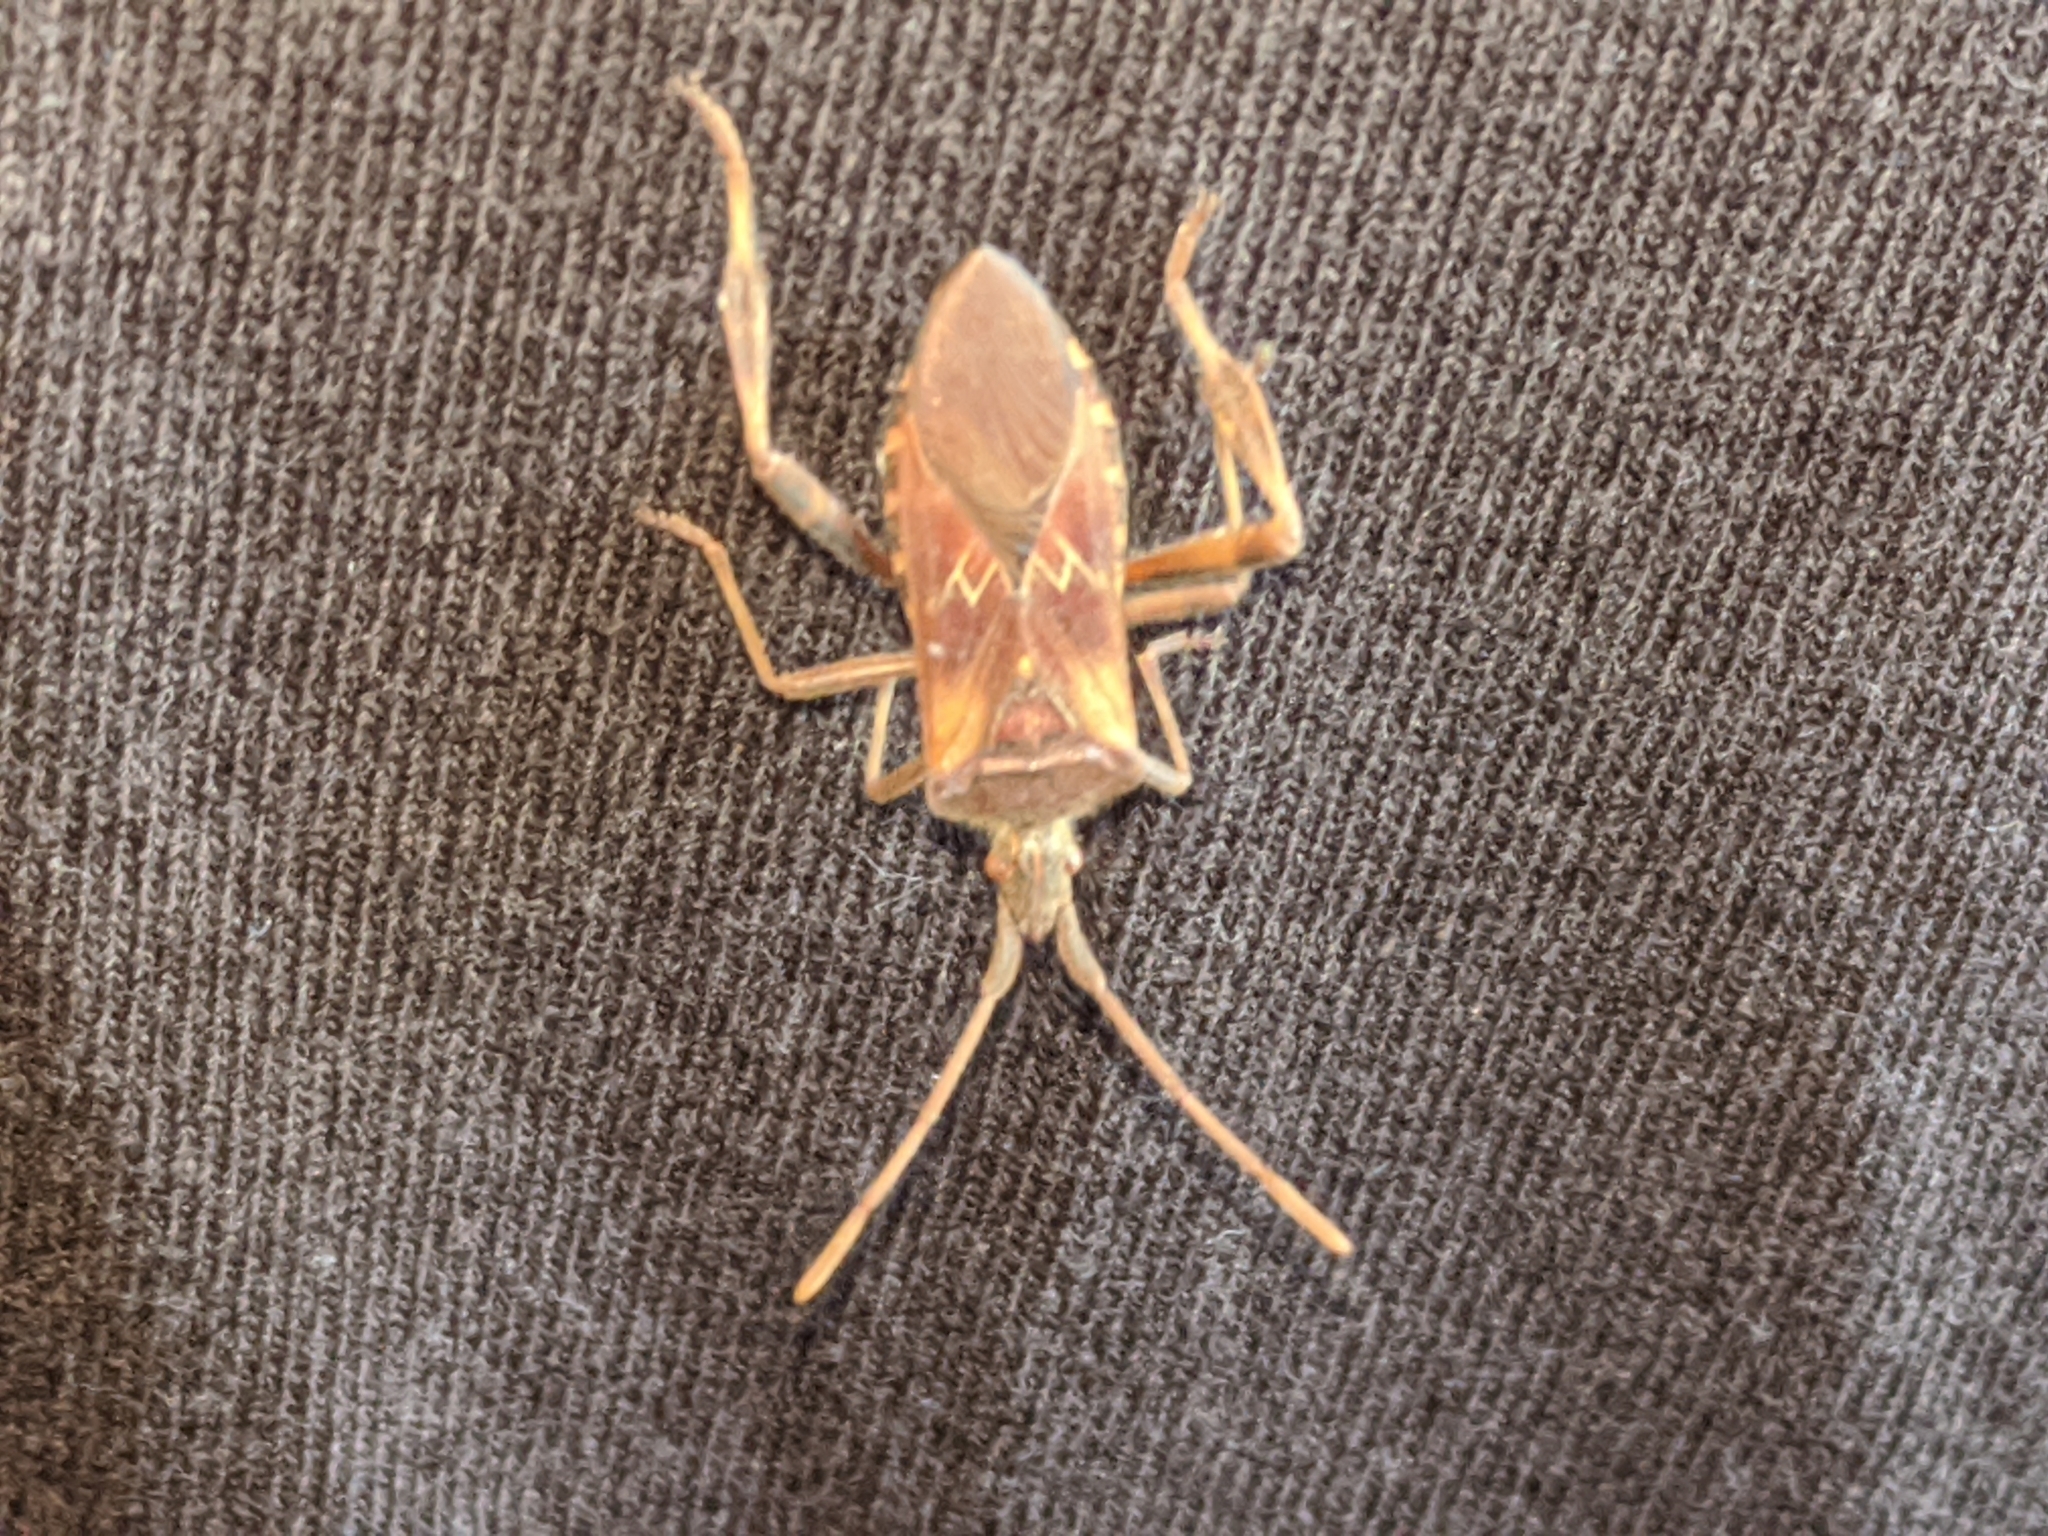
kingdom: Animalia
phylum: Arthropoda
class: Insecta
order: Hemiptera
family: Coreidae
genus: Leptoglossus
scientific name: Leptoglossus occidentalis
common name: Western conifer-seed bug
